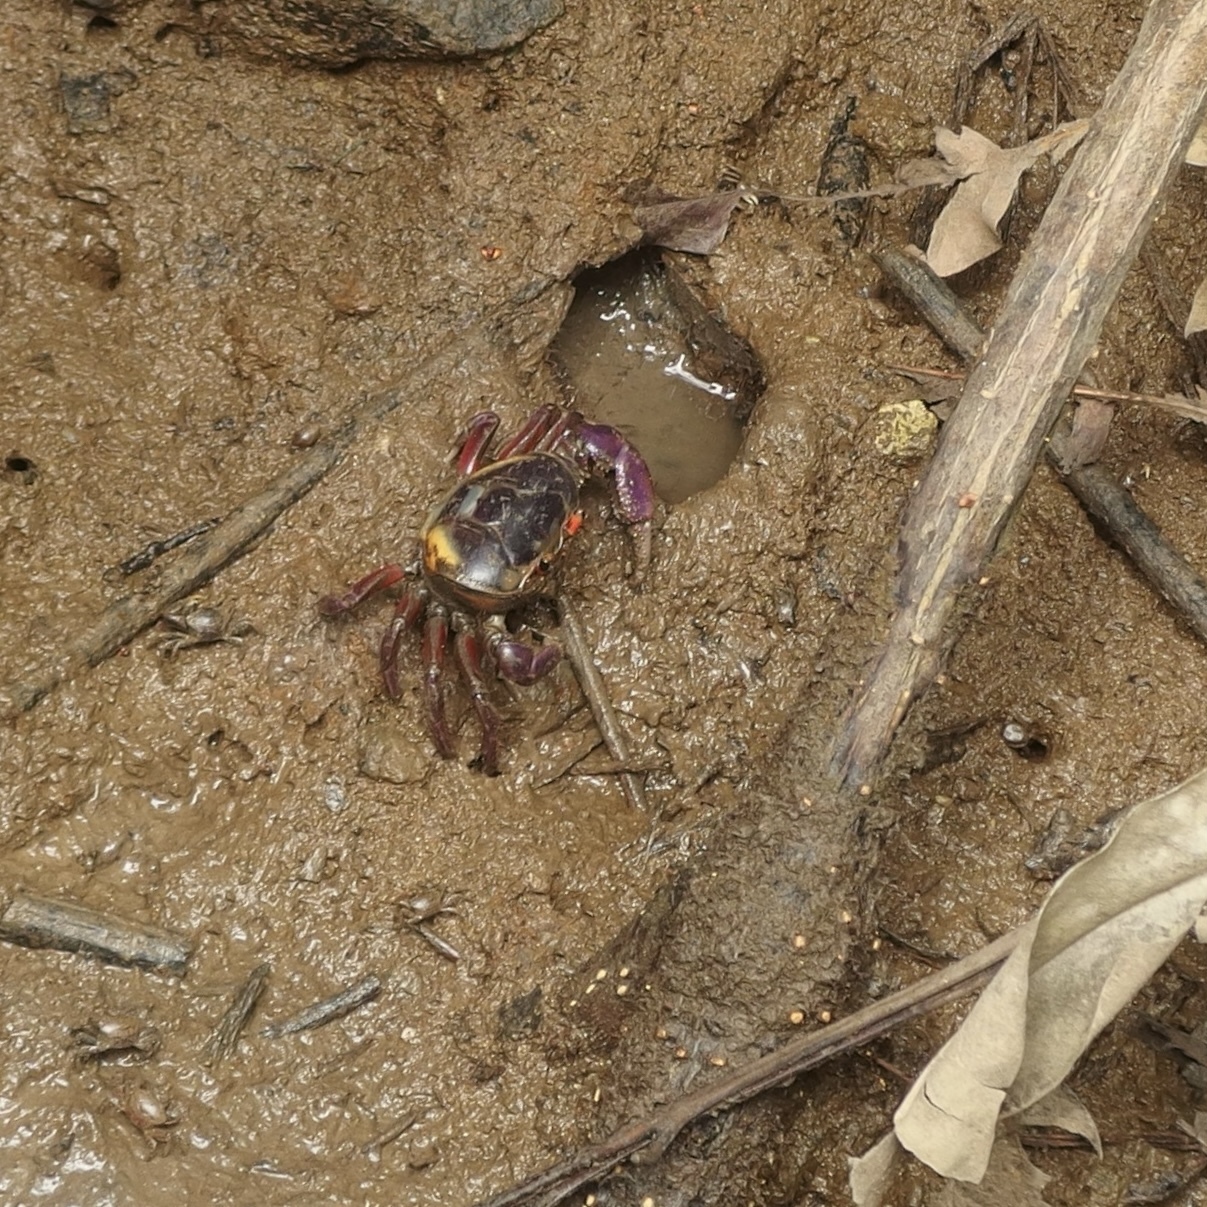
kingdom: Animalia
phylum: Arthropoda
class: Malacostraca
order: Decapoda
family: Ocypodidae
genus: Ucides
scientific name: Ucides occidentalis
